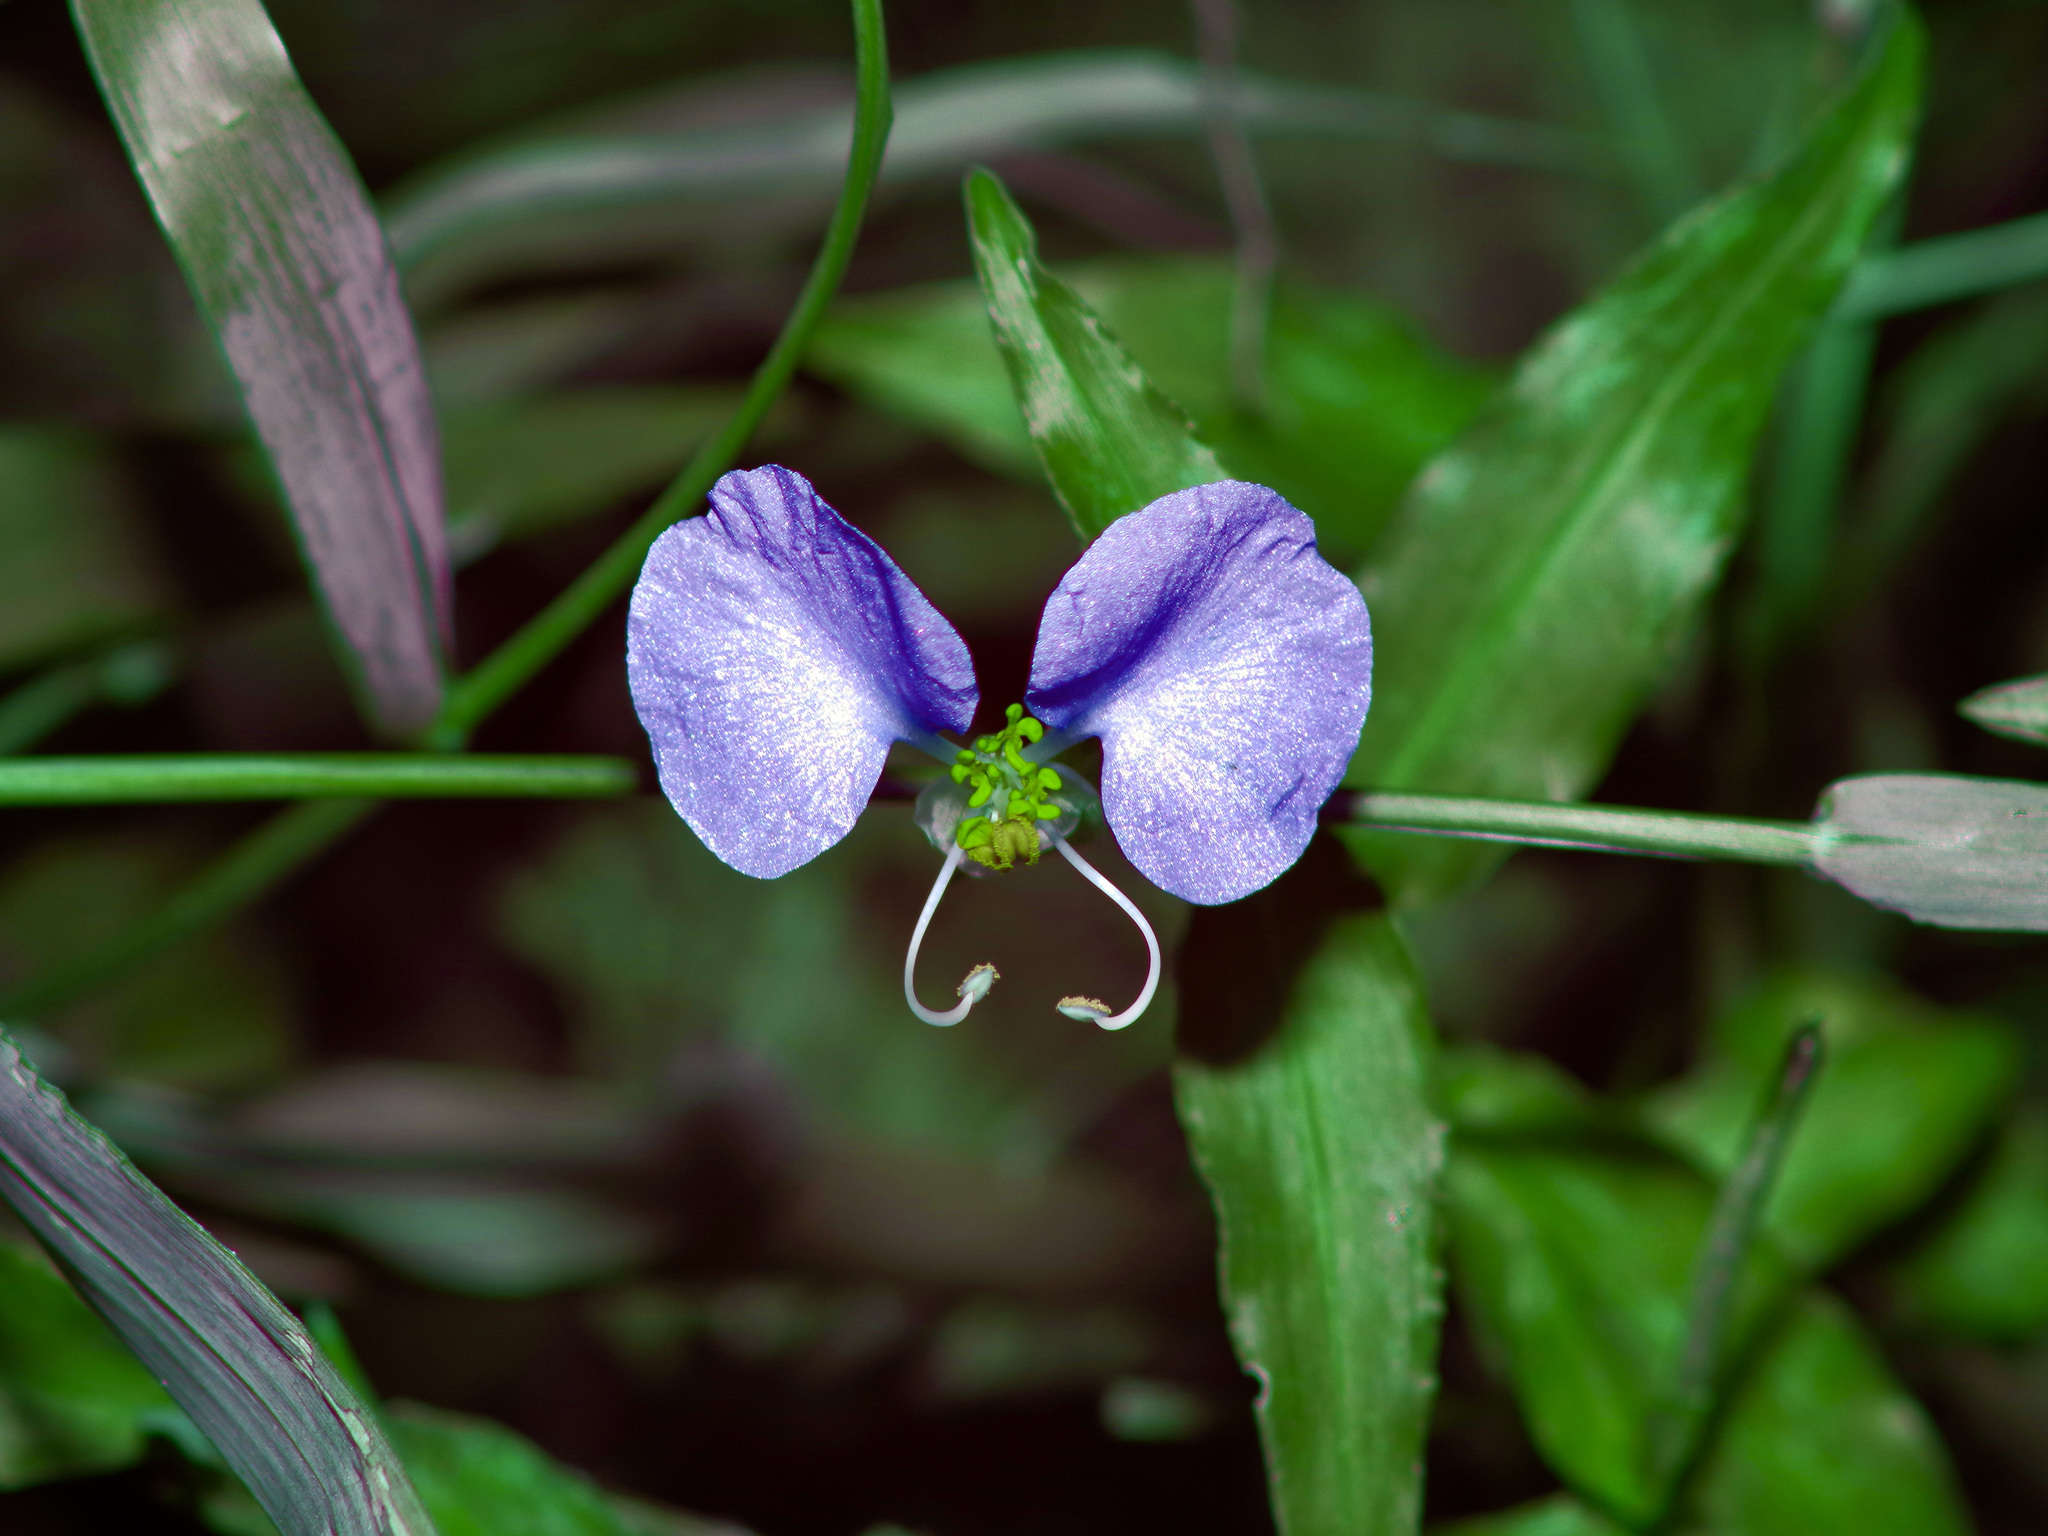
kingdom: Plantae
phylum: Tracheophyta
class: Liliopsida
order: Commelinales
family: Commelinaceae
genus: Commelina
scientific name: Commelina erecta
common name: Blousel blommetjie
